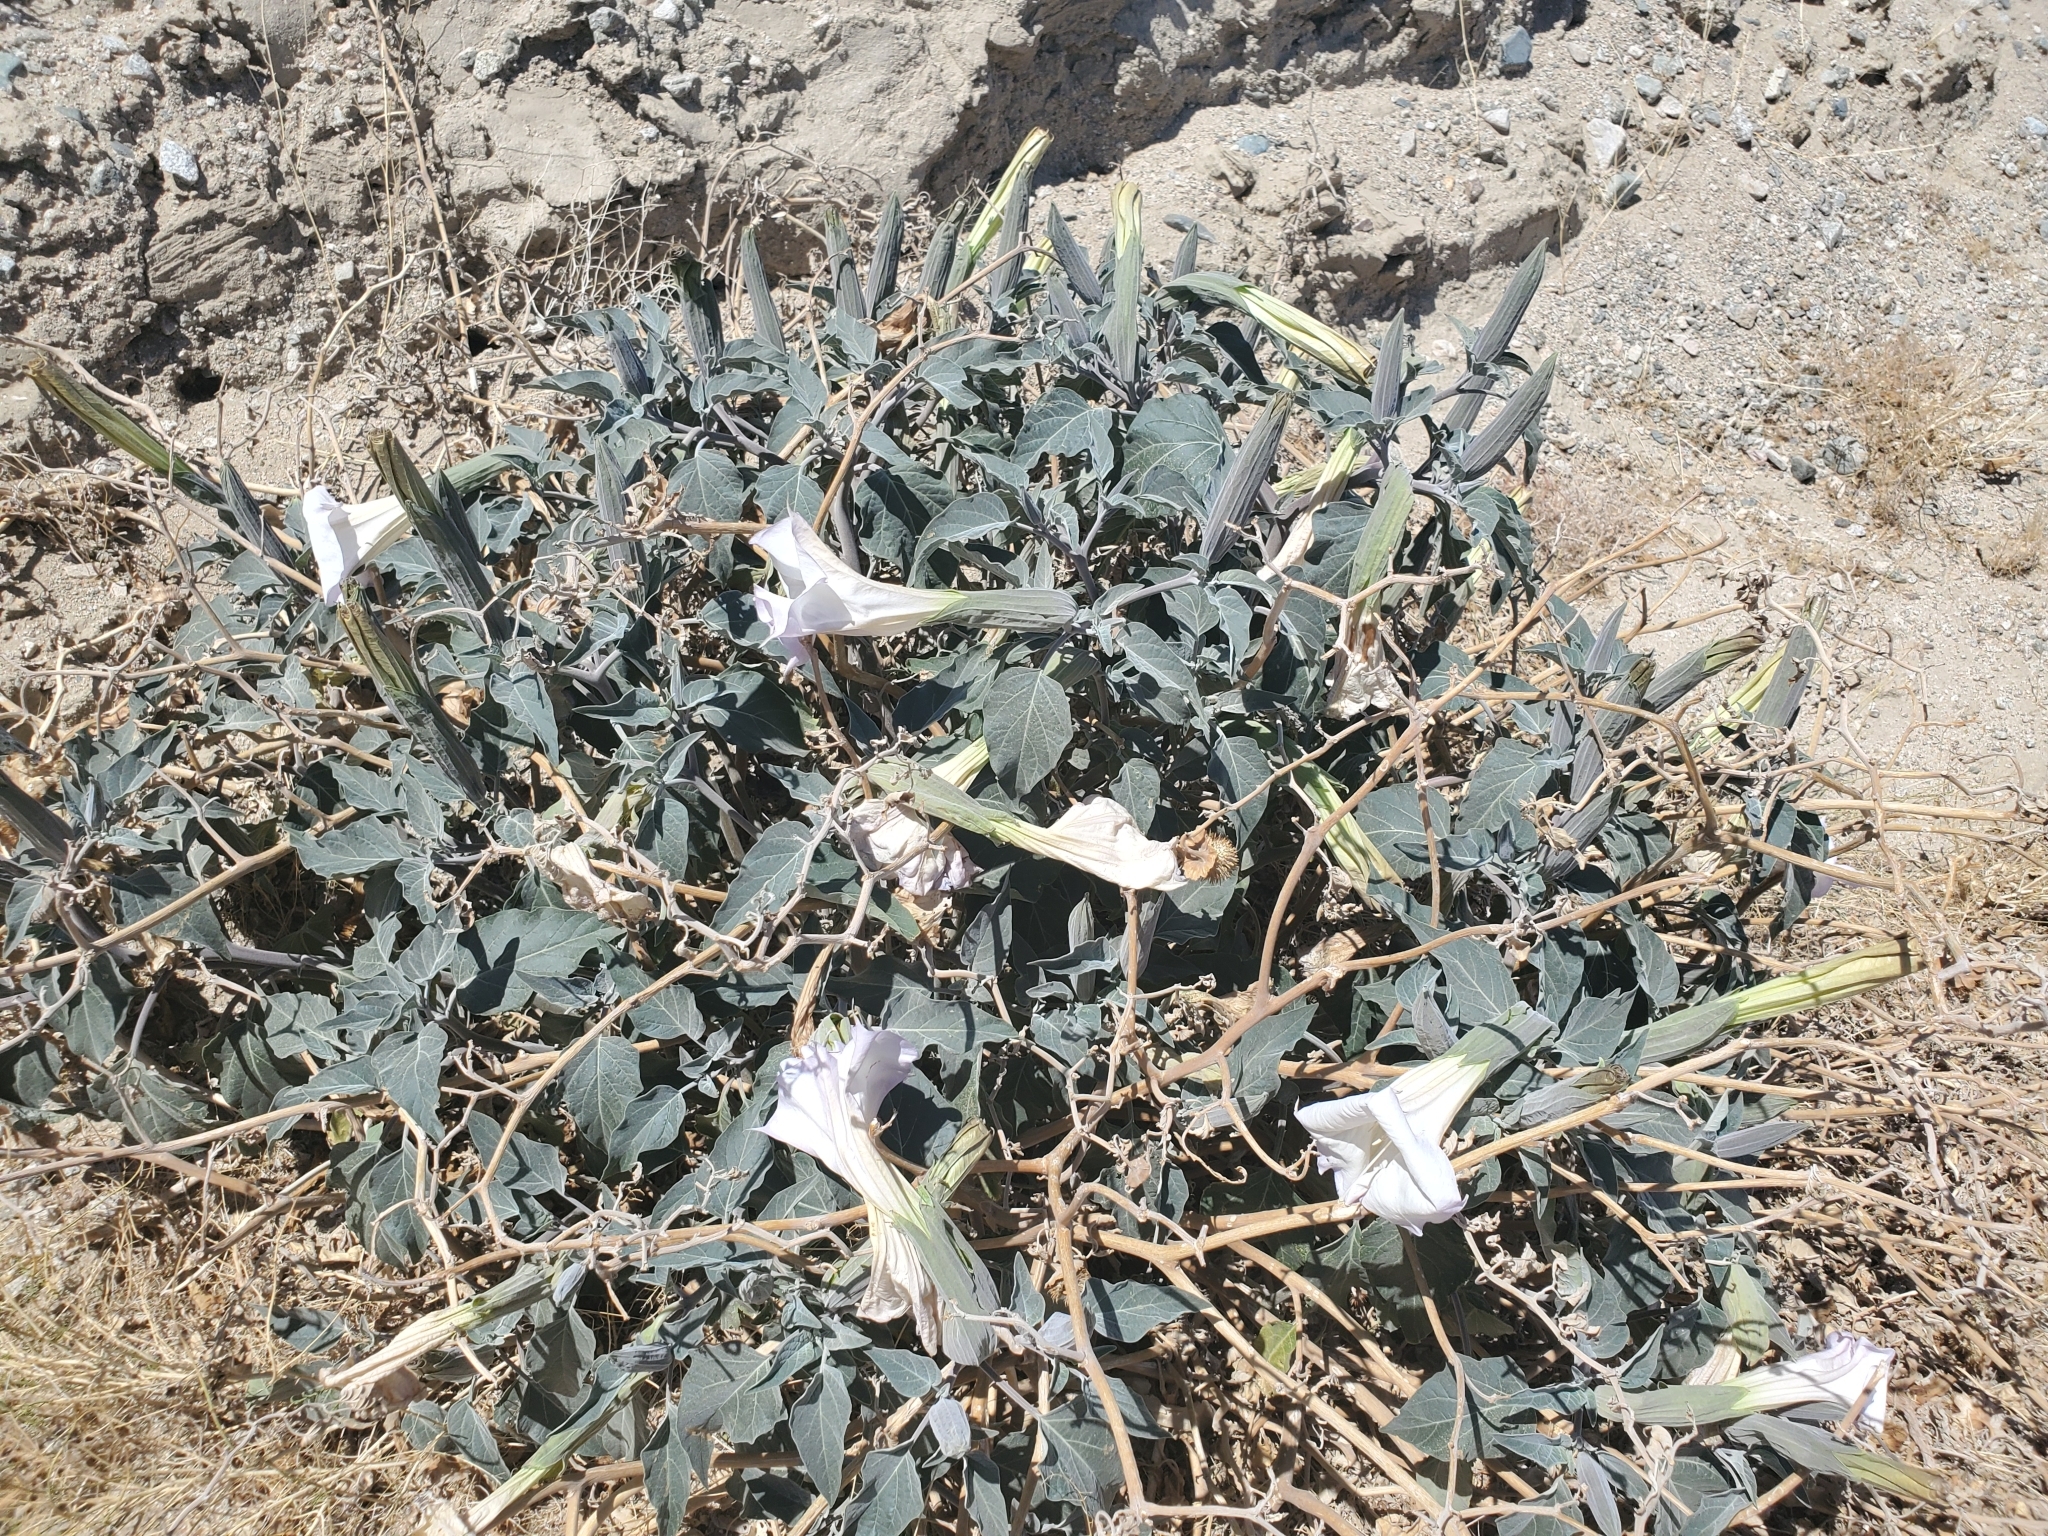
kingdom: Plantae
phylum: Tracheophyta
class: Magnoliopsida
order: Solanales
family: Solanaceae
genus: Datura
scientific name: Datura wrightii
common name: Sacred thorn-apple
